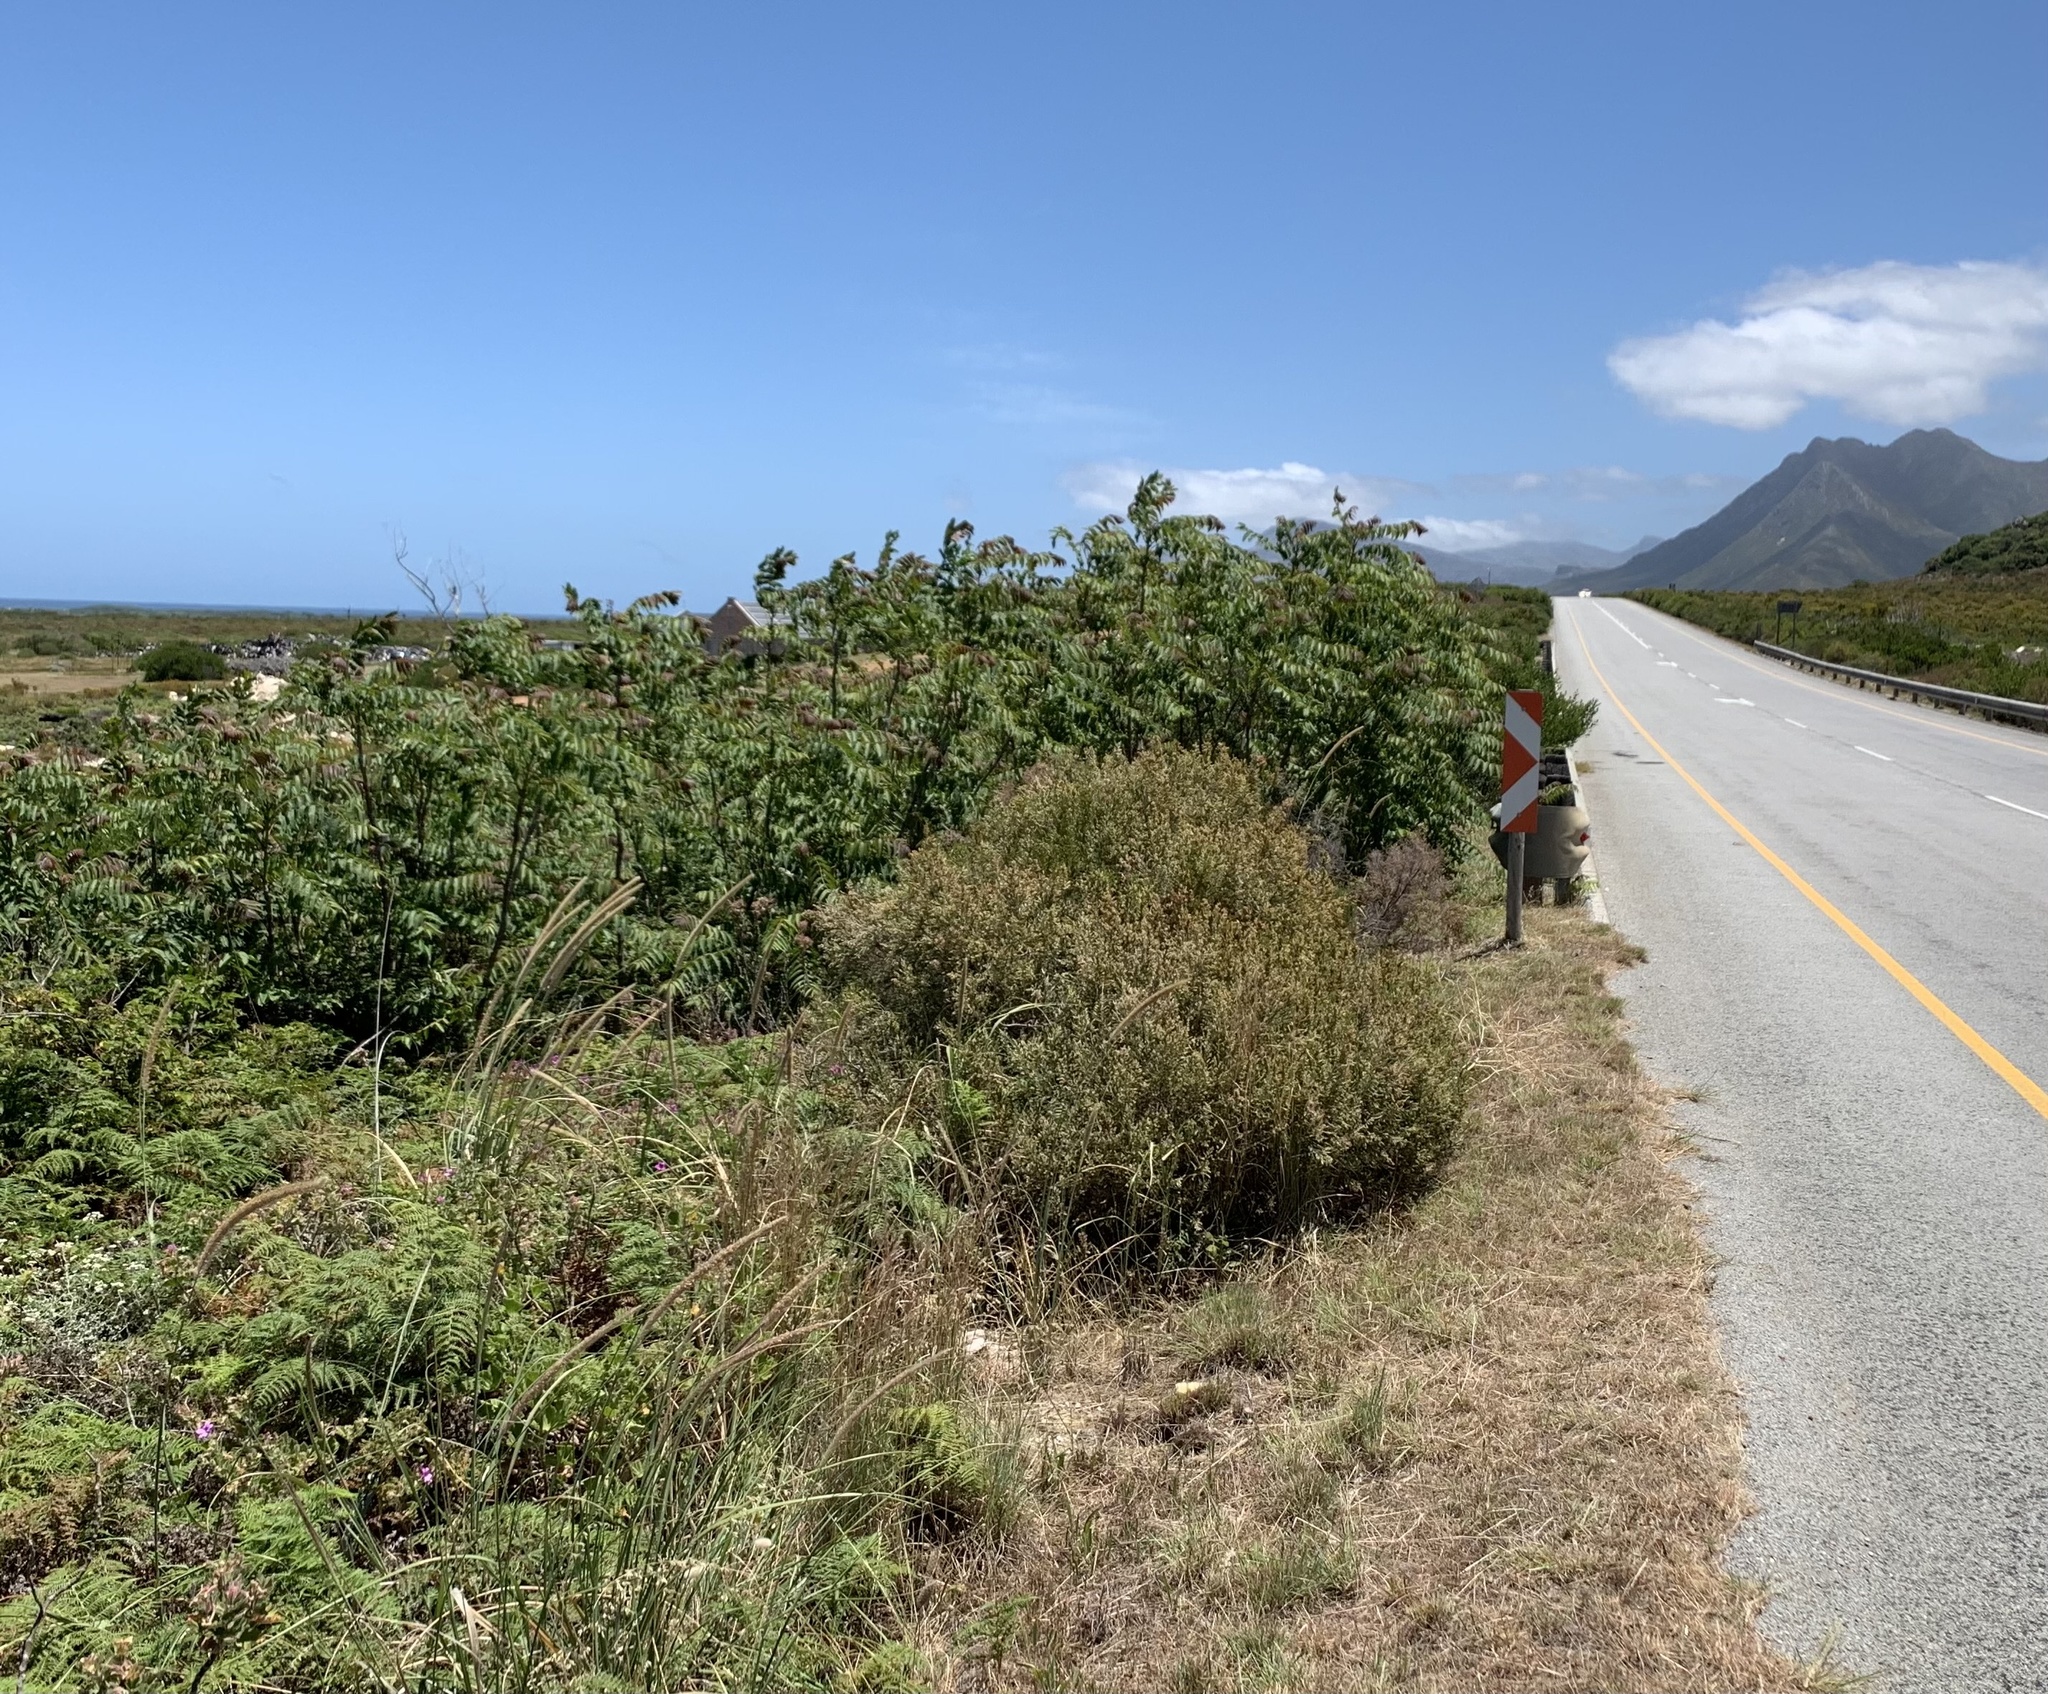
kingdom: Plantae
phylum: Tracheophyta
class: Magnoliopsida
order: Sapindales
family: Simaroubaceae
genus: Ailanthus
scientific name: Ailanthus altissima
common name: Tree-of-heaven
